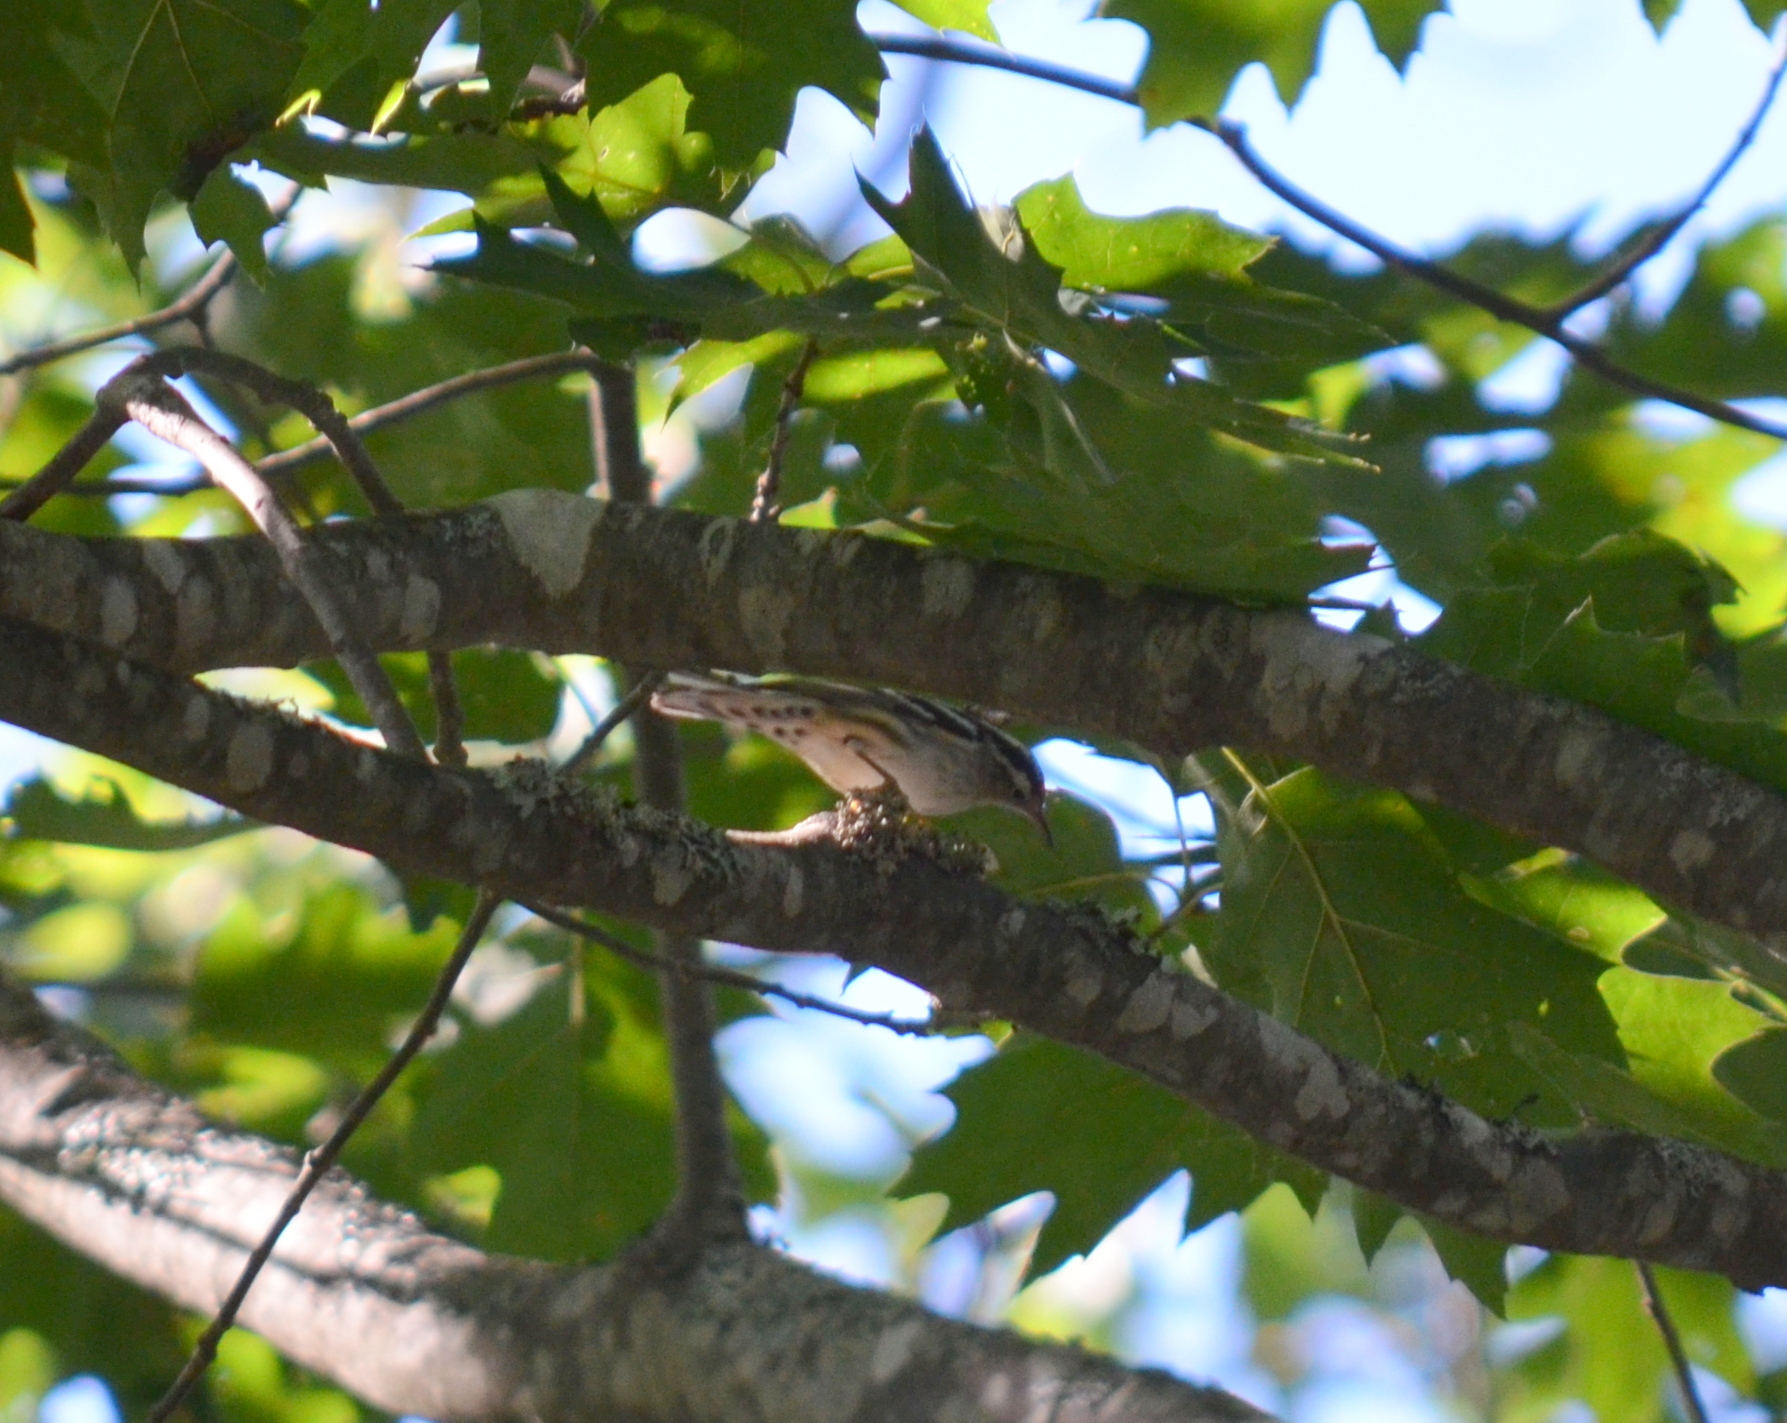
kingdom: Animalia
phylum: Chordata
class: Aves
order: Passeriformes
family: Parulidae
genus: Mniotilta
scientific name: Mniotilta varia
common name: Black-and-white warbler
